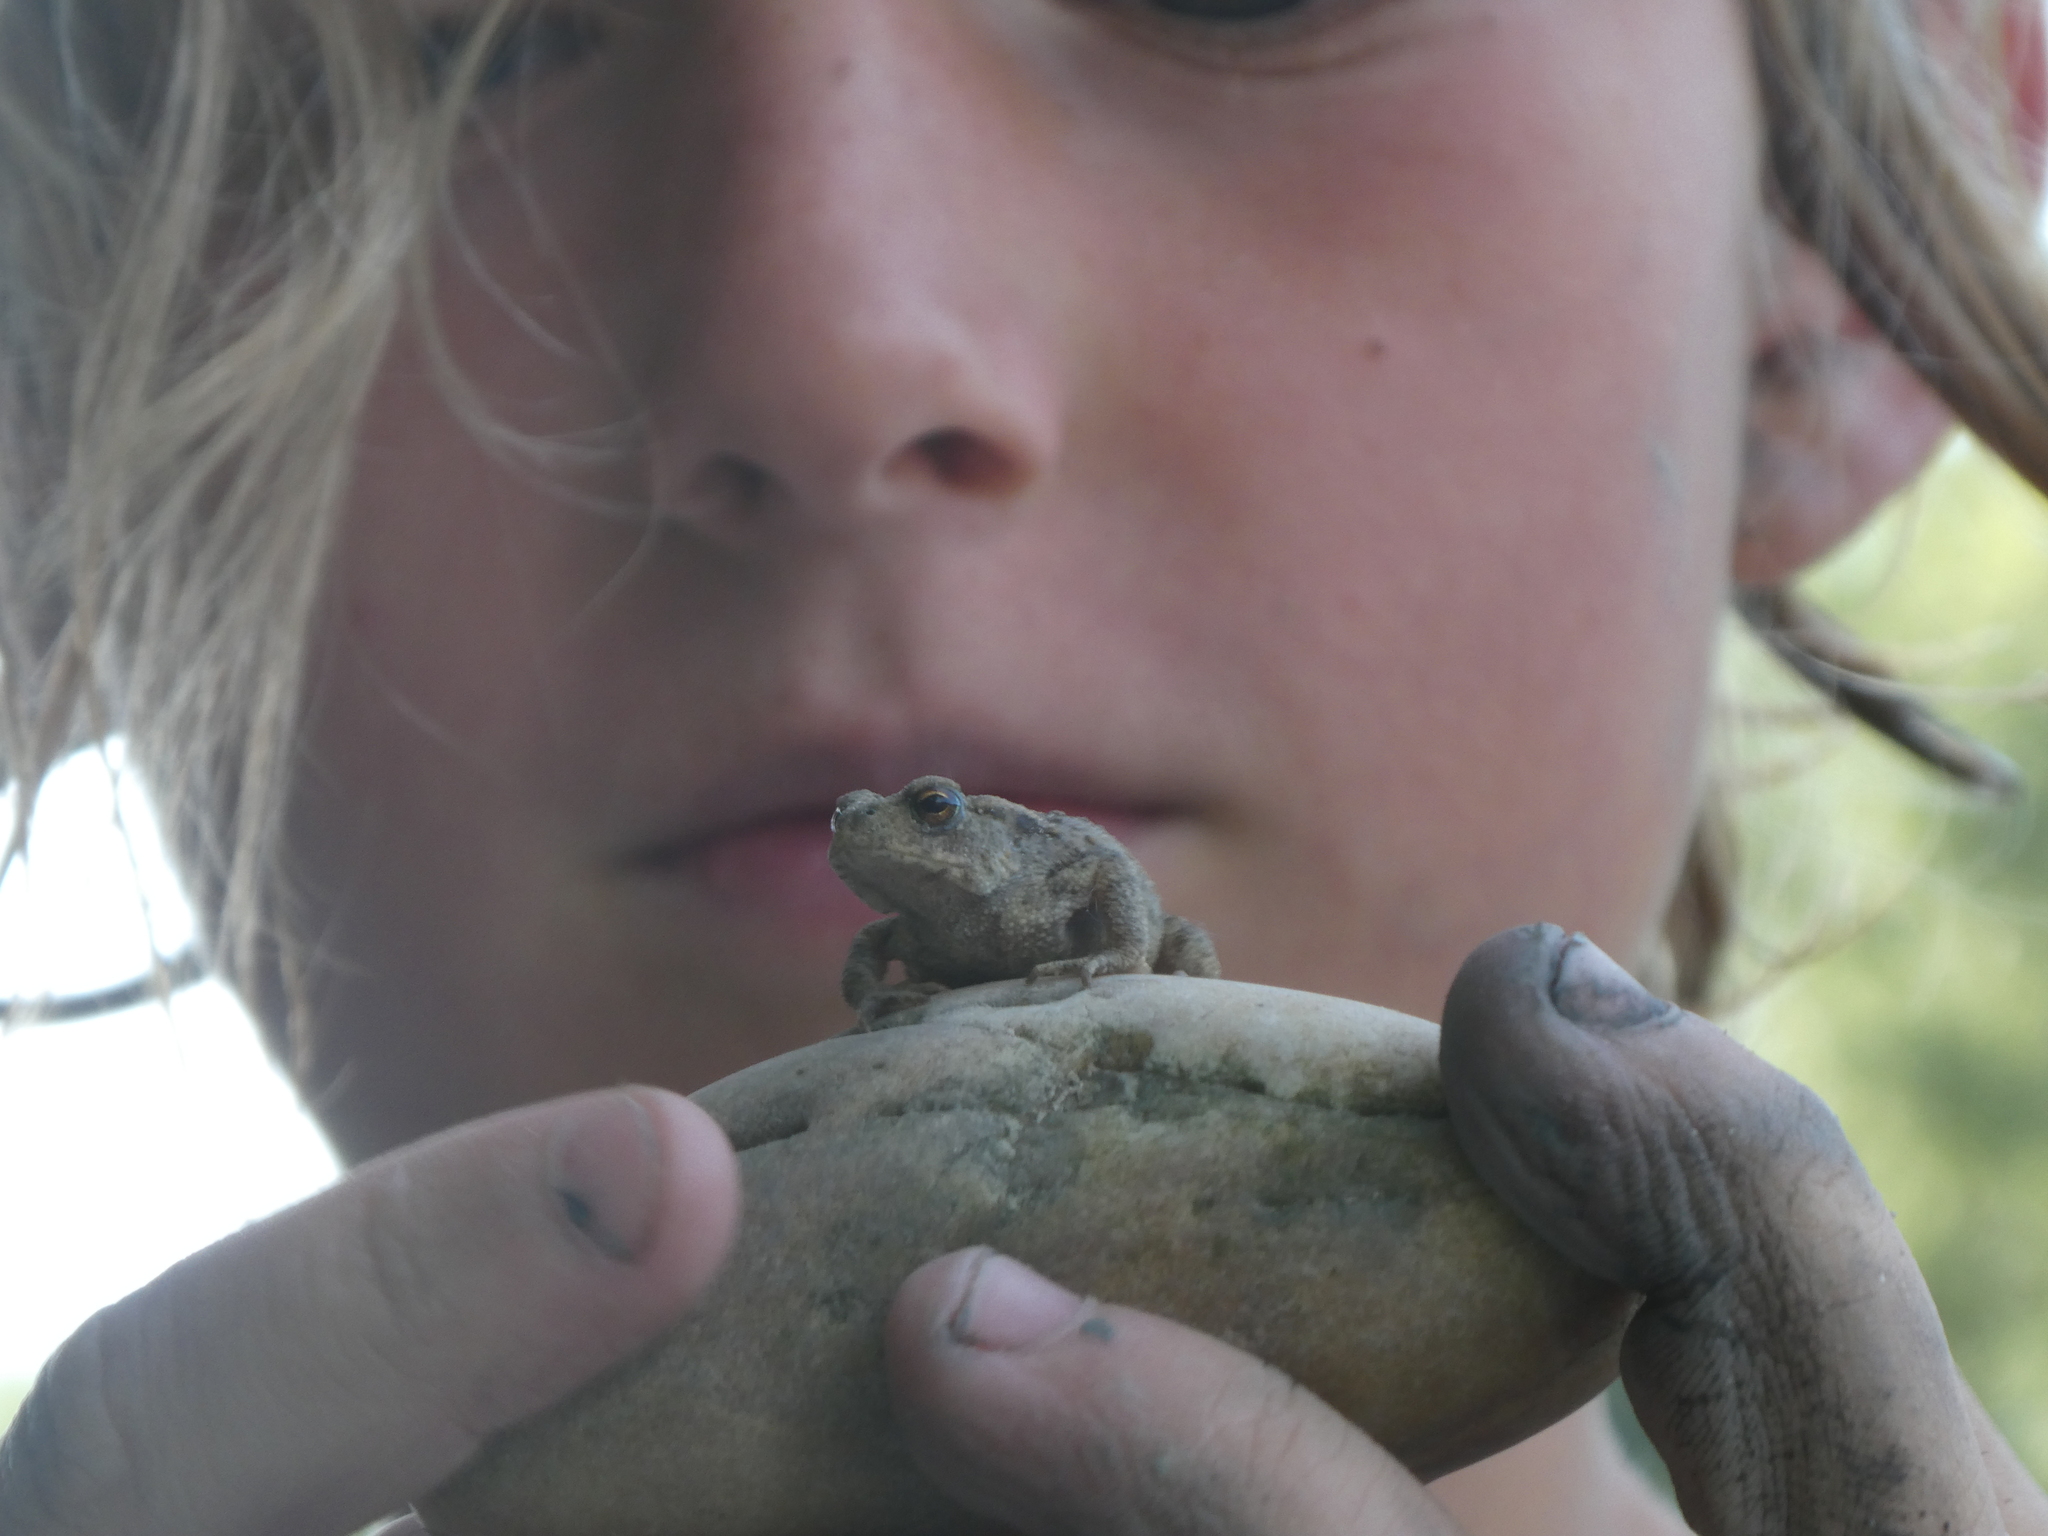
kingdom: Animalia
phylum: Chordata
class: Amphibia
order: Anura
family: Bufonidae
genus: Bufo
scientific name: Bufo bufo
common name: Common toad
